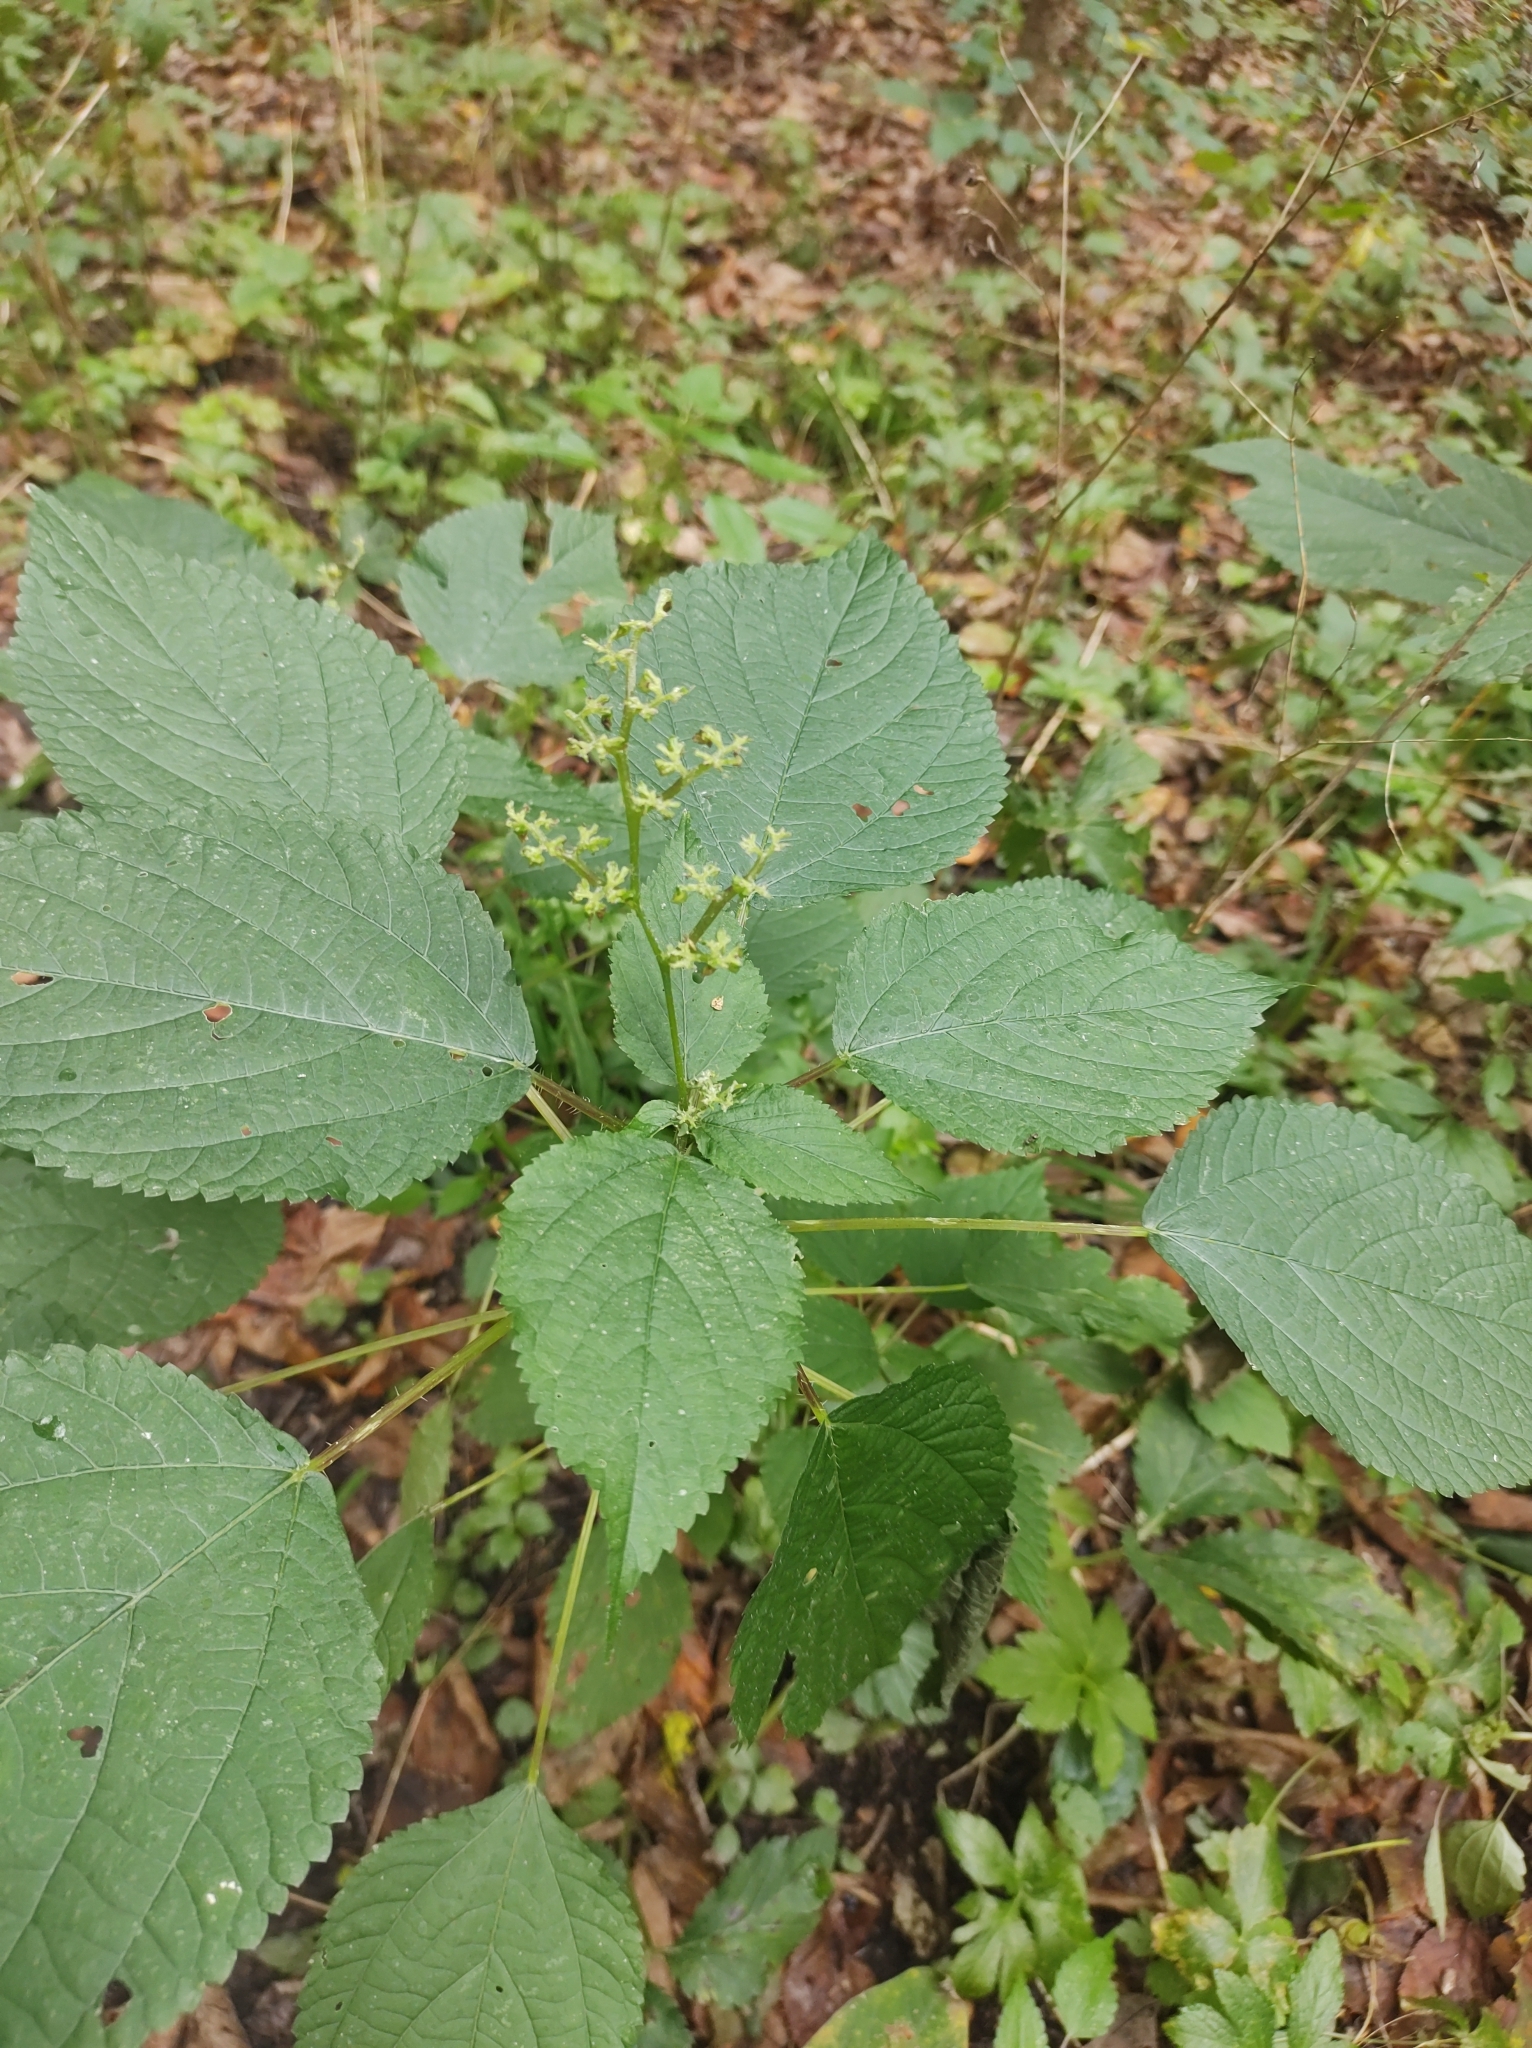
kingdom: Plantae
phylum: Tracheophyta
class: Magnoliopsida
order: Rosales
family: Urticaceae
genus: Laportea
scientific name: Laportea canadensis
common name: Canada nettle
